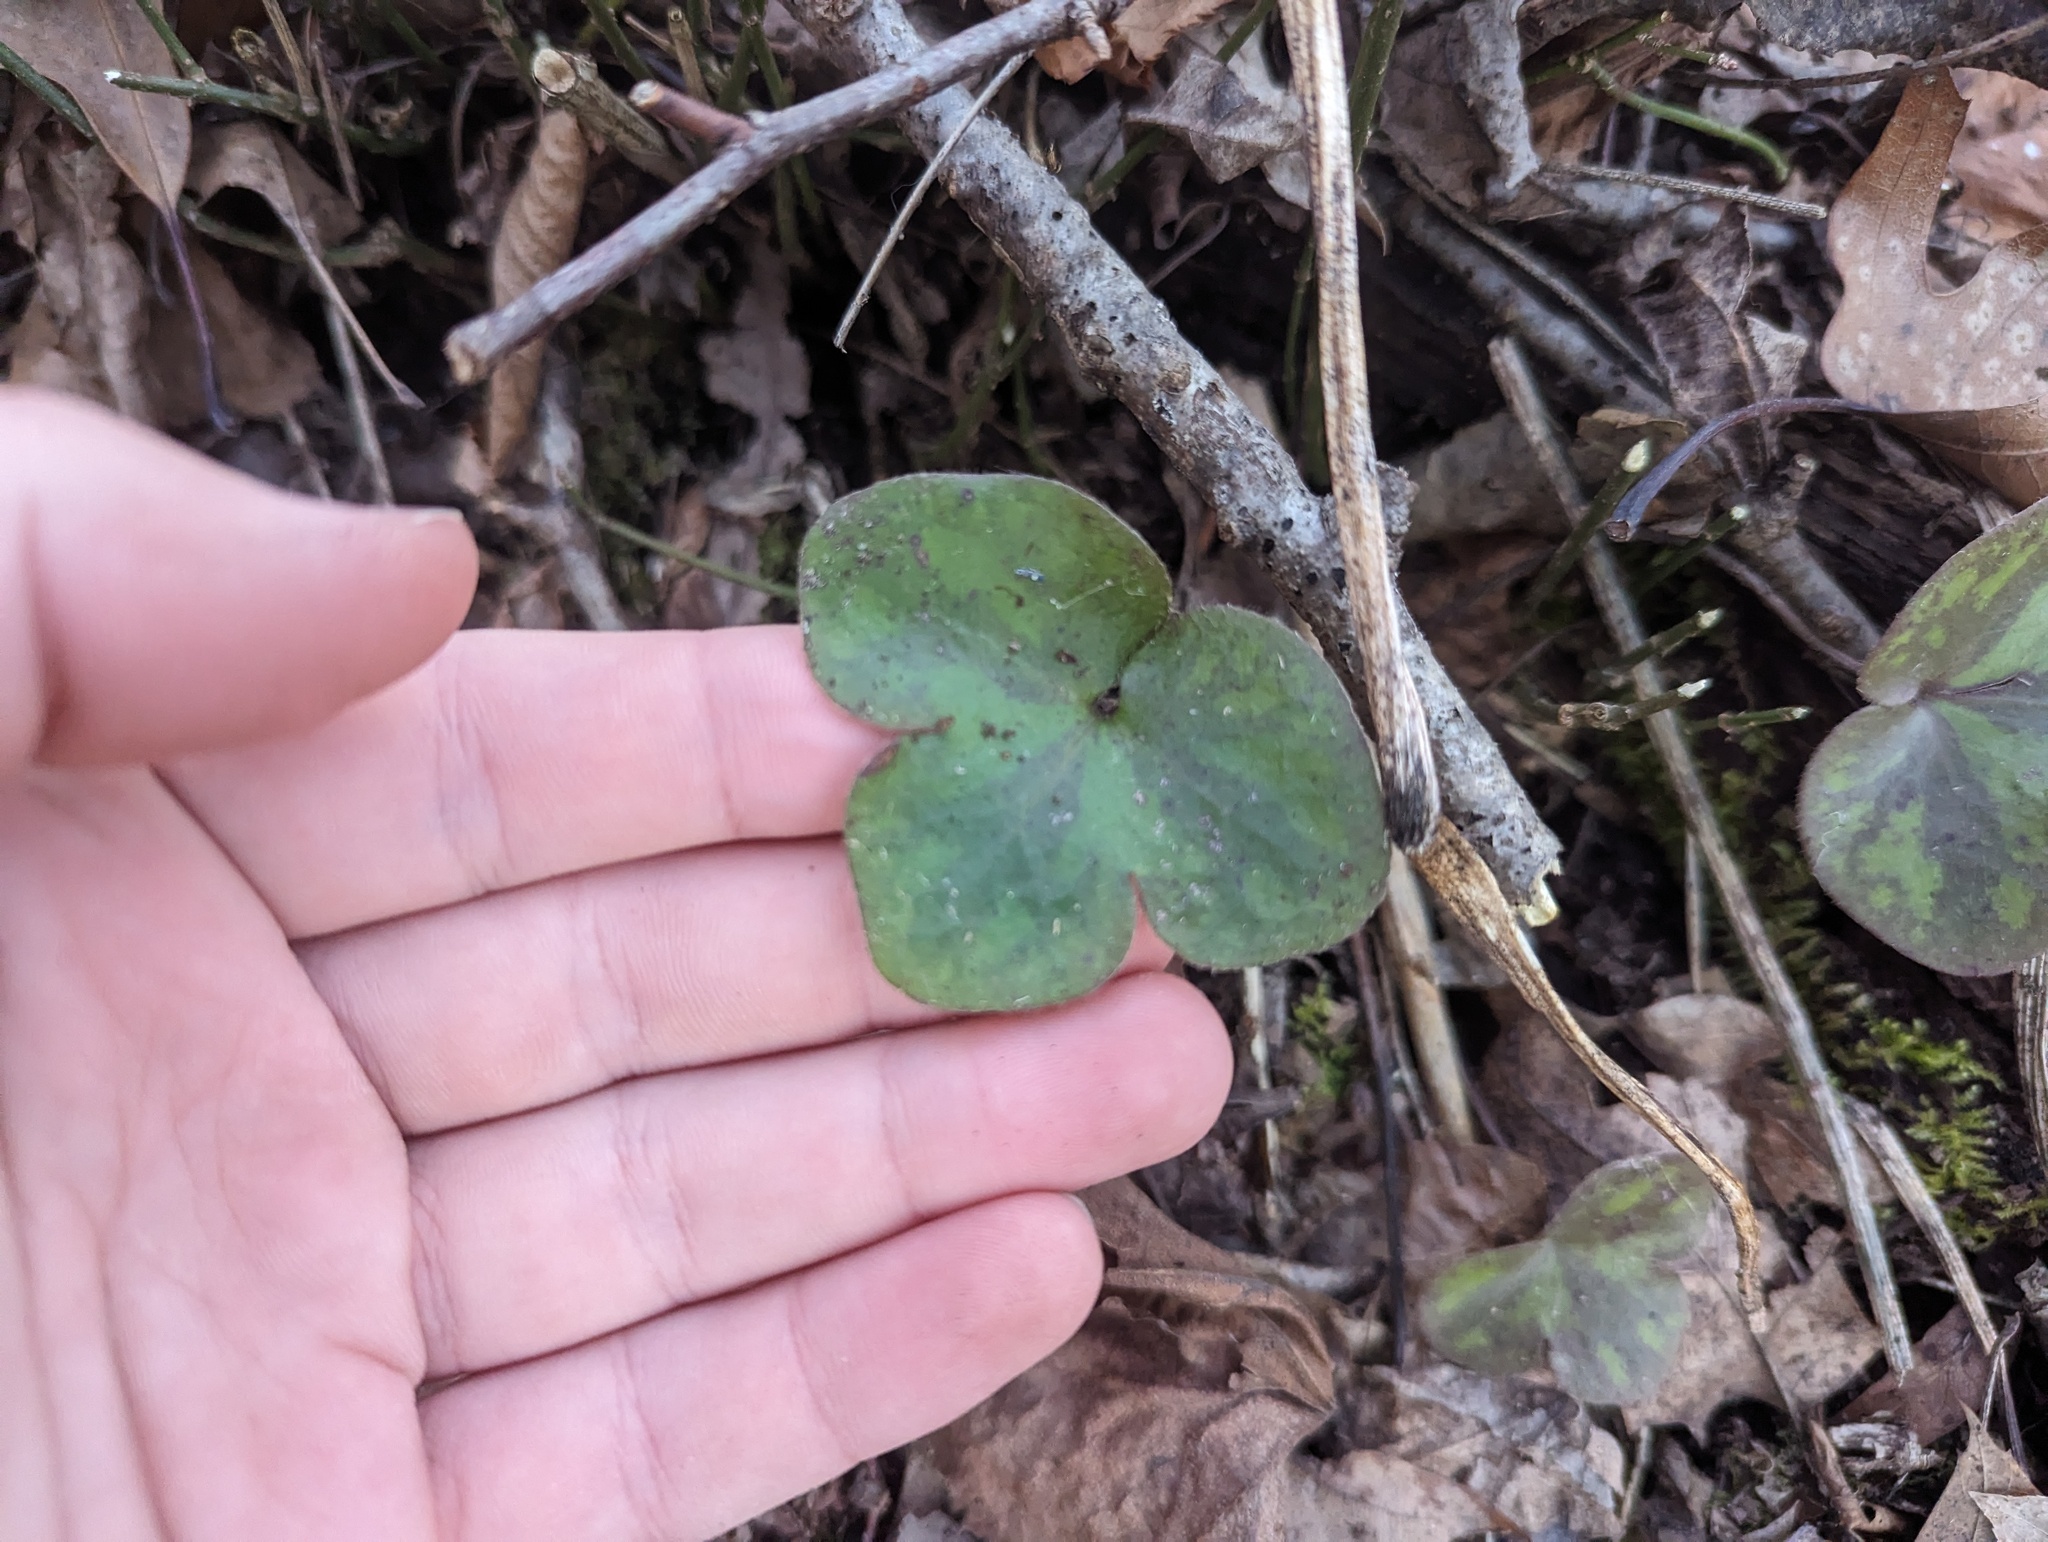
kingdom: Plantae
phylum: Tracheophyta
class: Magnoliopsida
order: Ranunculales
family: Ranunculaceae
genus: Hepatica
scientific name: Hepatica americana
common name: American hepatica
